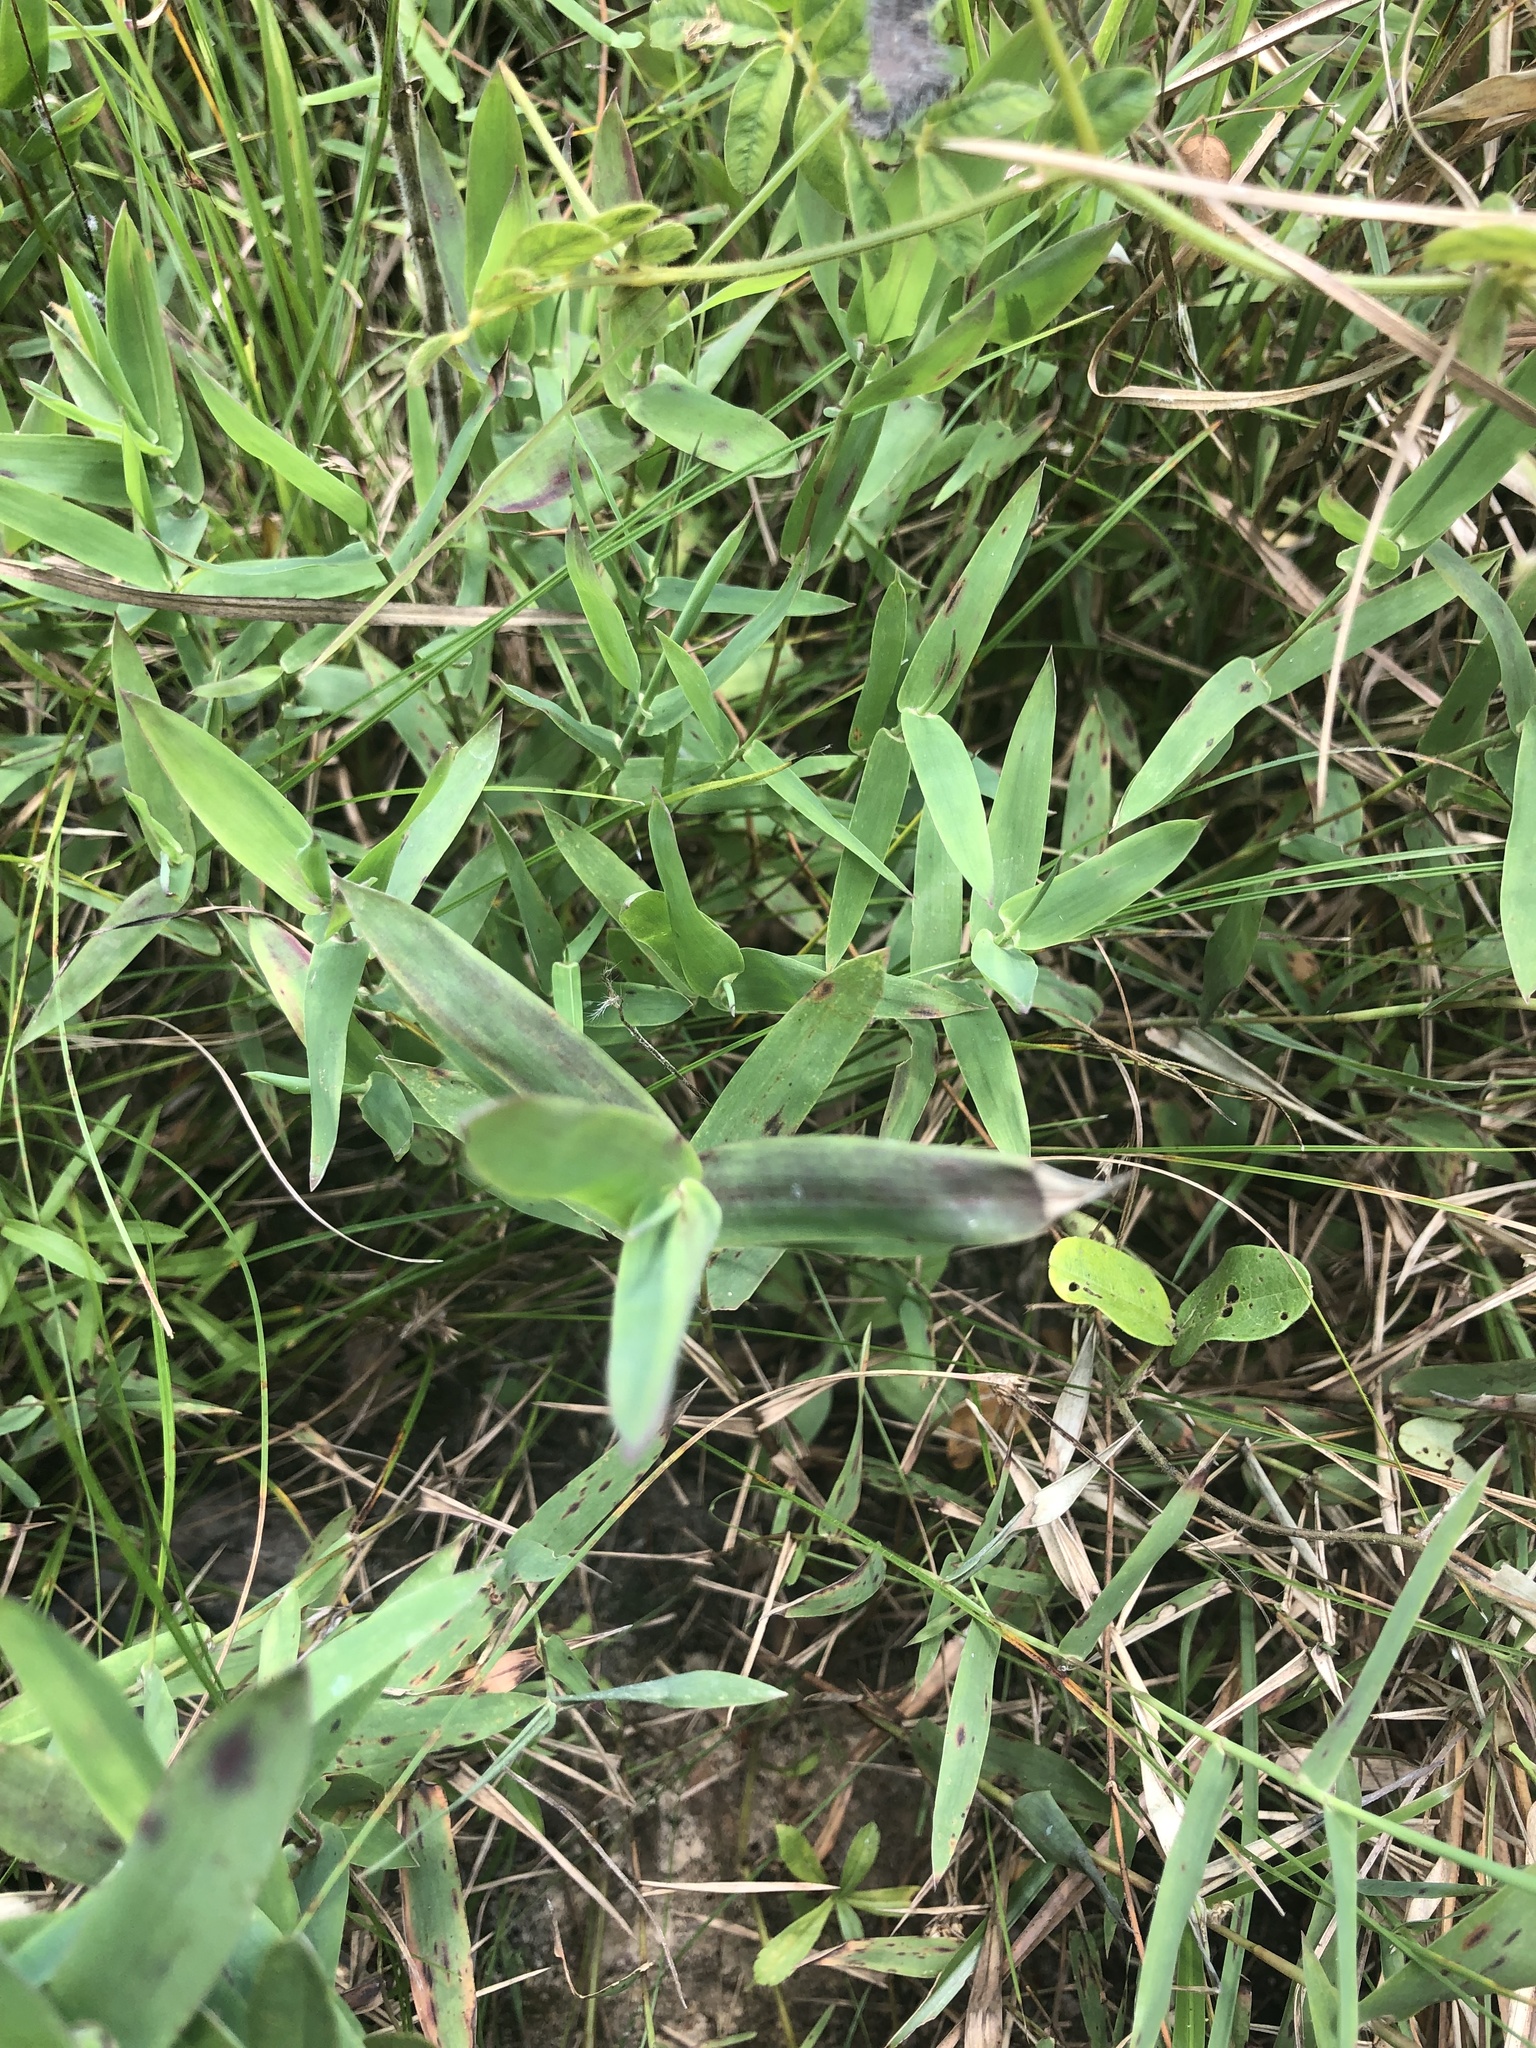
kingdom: Plantae
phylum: Tracheophyta
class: Liliopsida
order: Poales
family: Poaceae
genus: Gymnopogon
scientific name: Gymnopogon brevifolius
